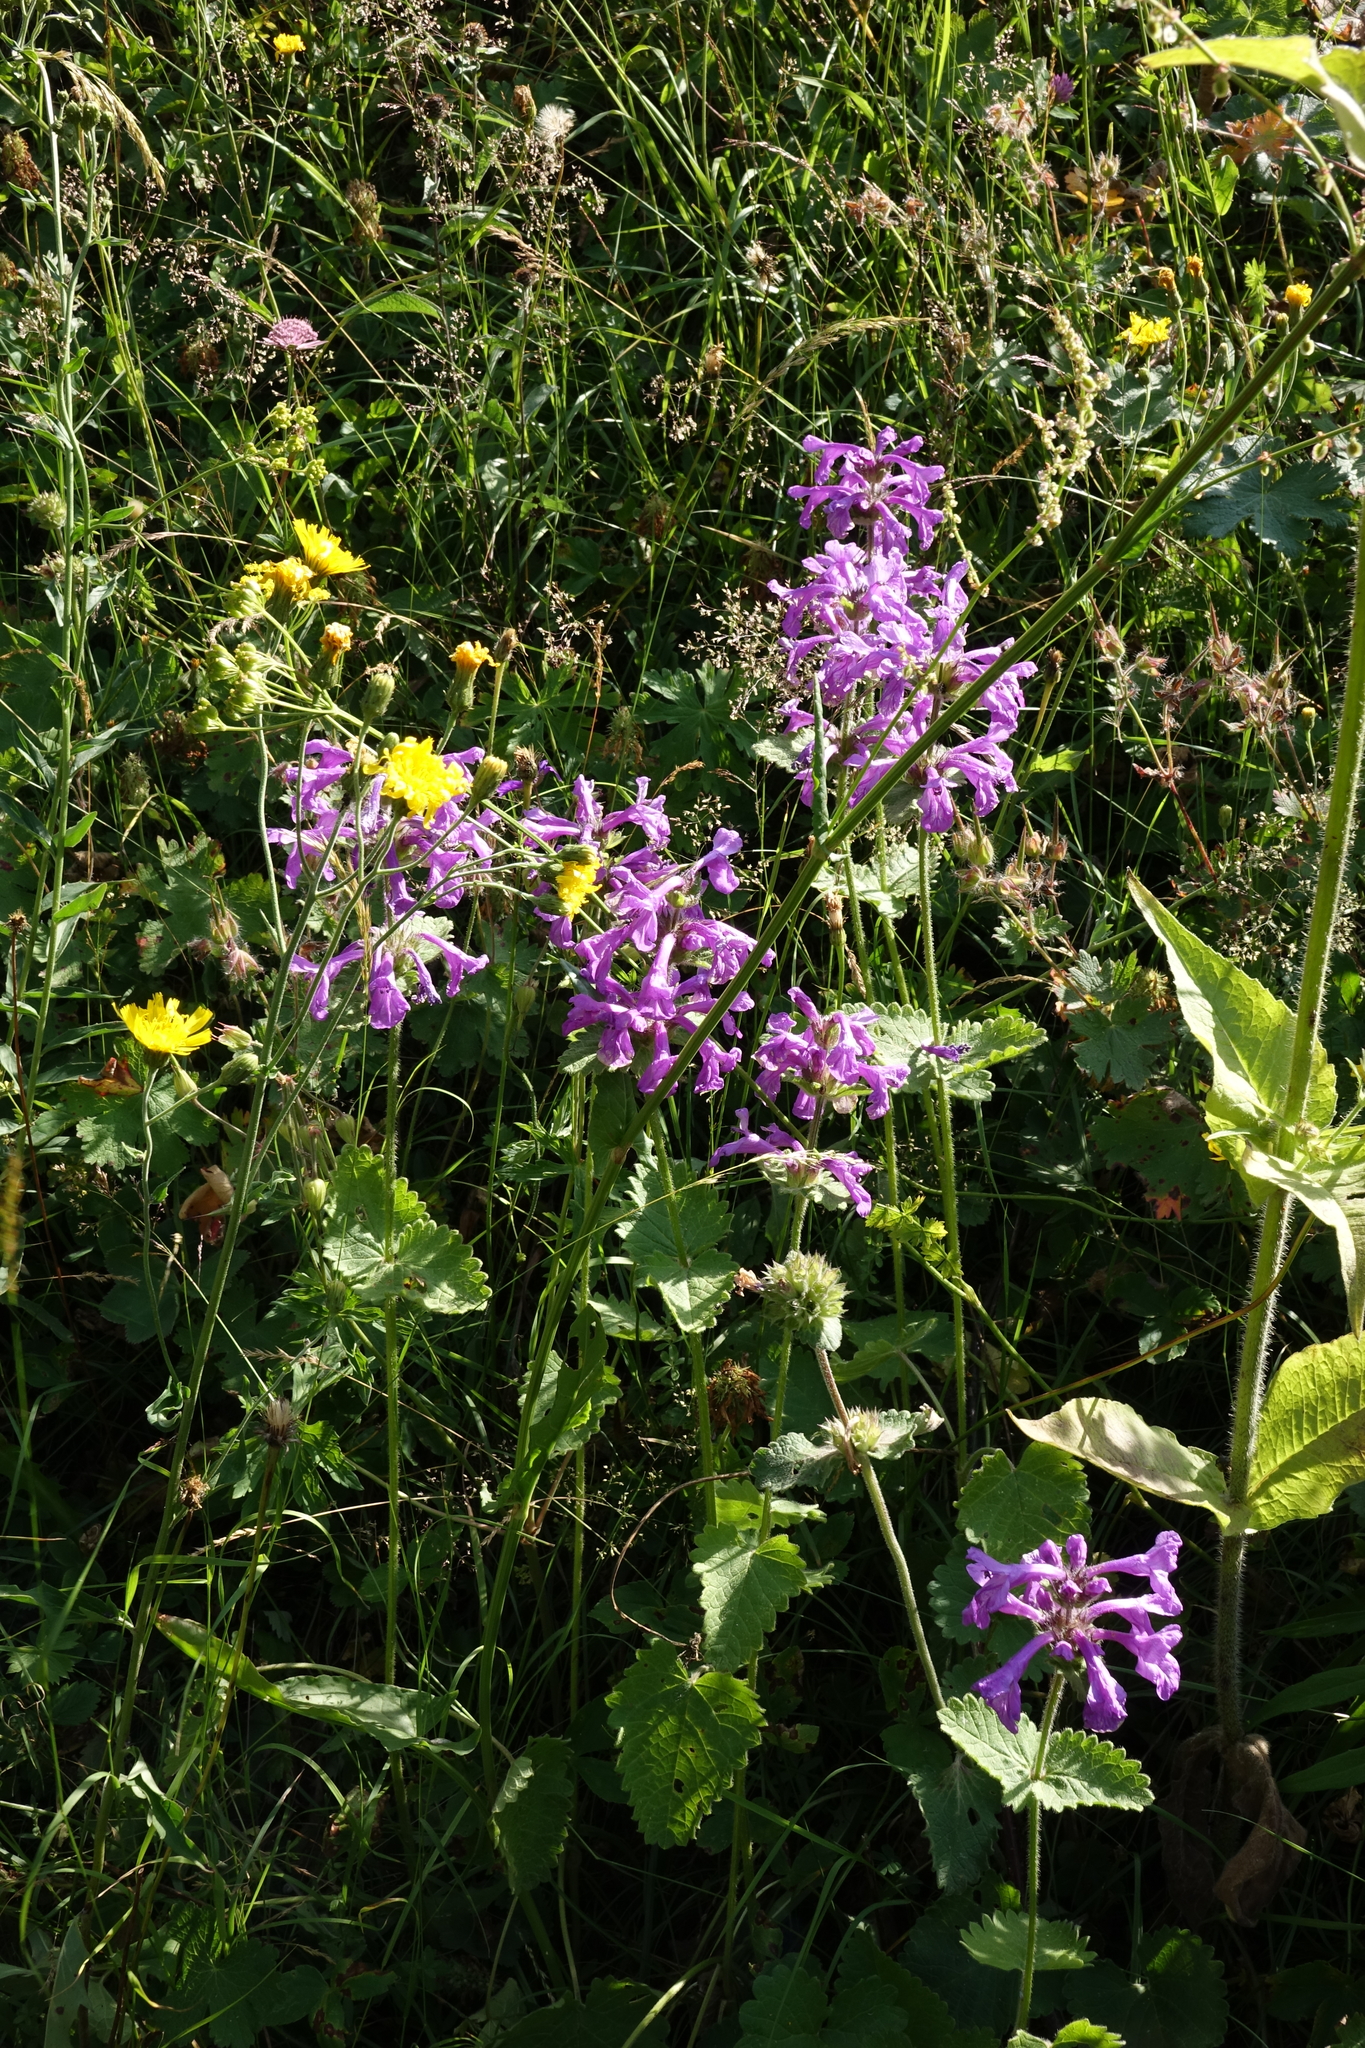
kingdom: Plantae
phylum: Tracheophyta
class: Magnoliopsida
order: Lamiales
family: Lamiaceae
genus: Betonica
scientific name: Betonica macrantha
